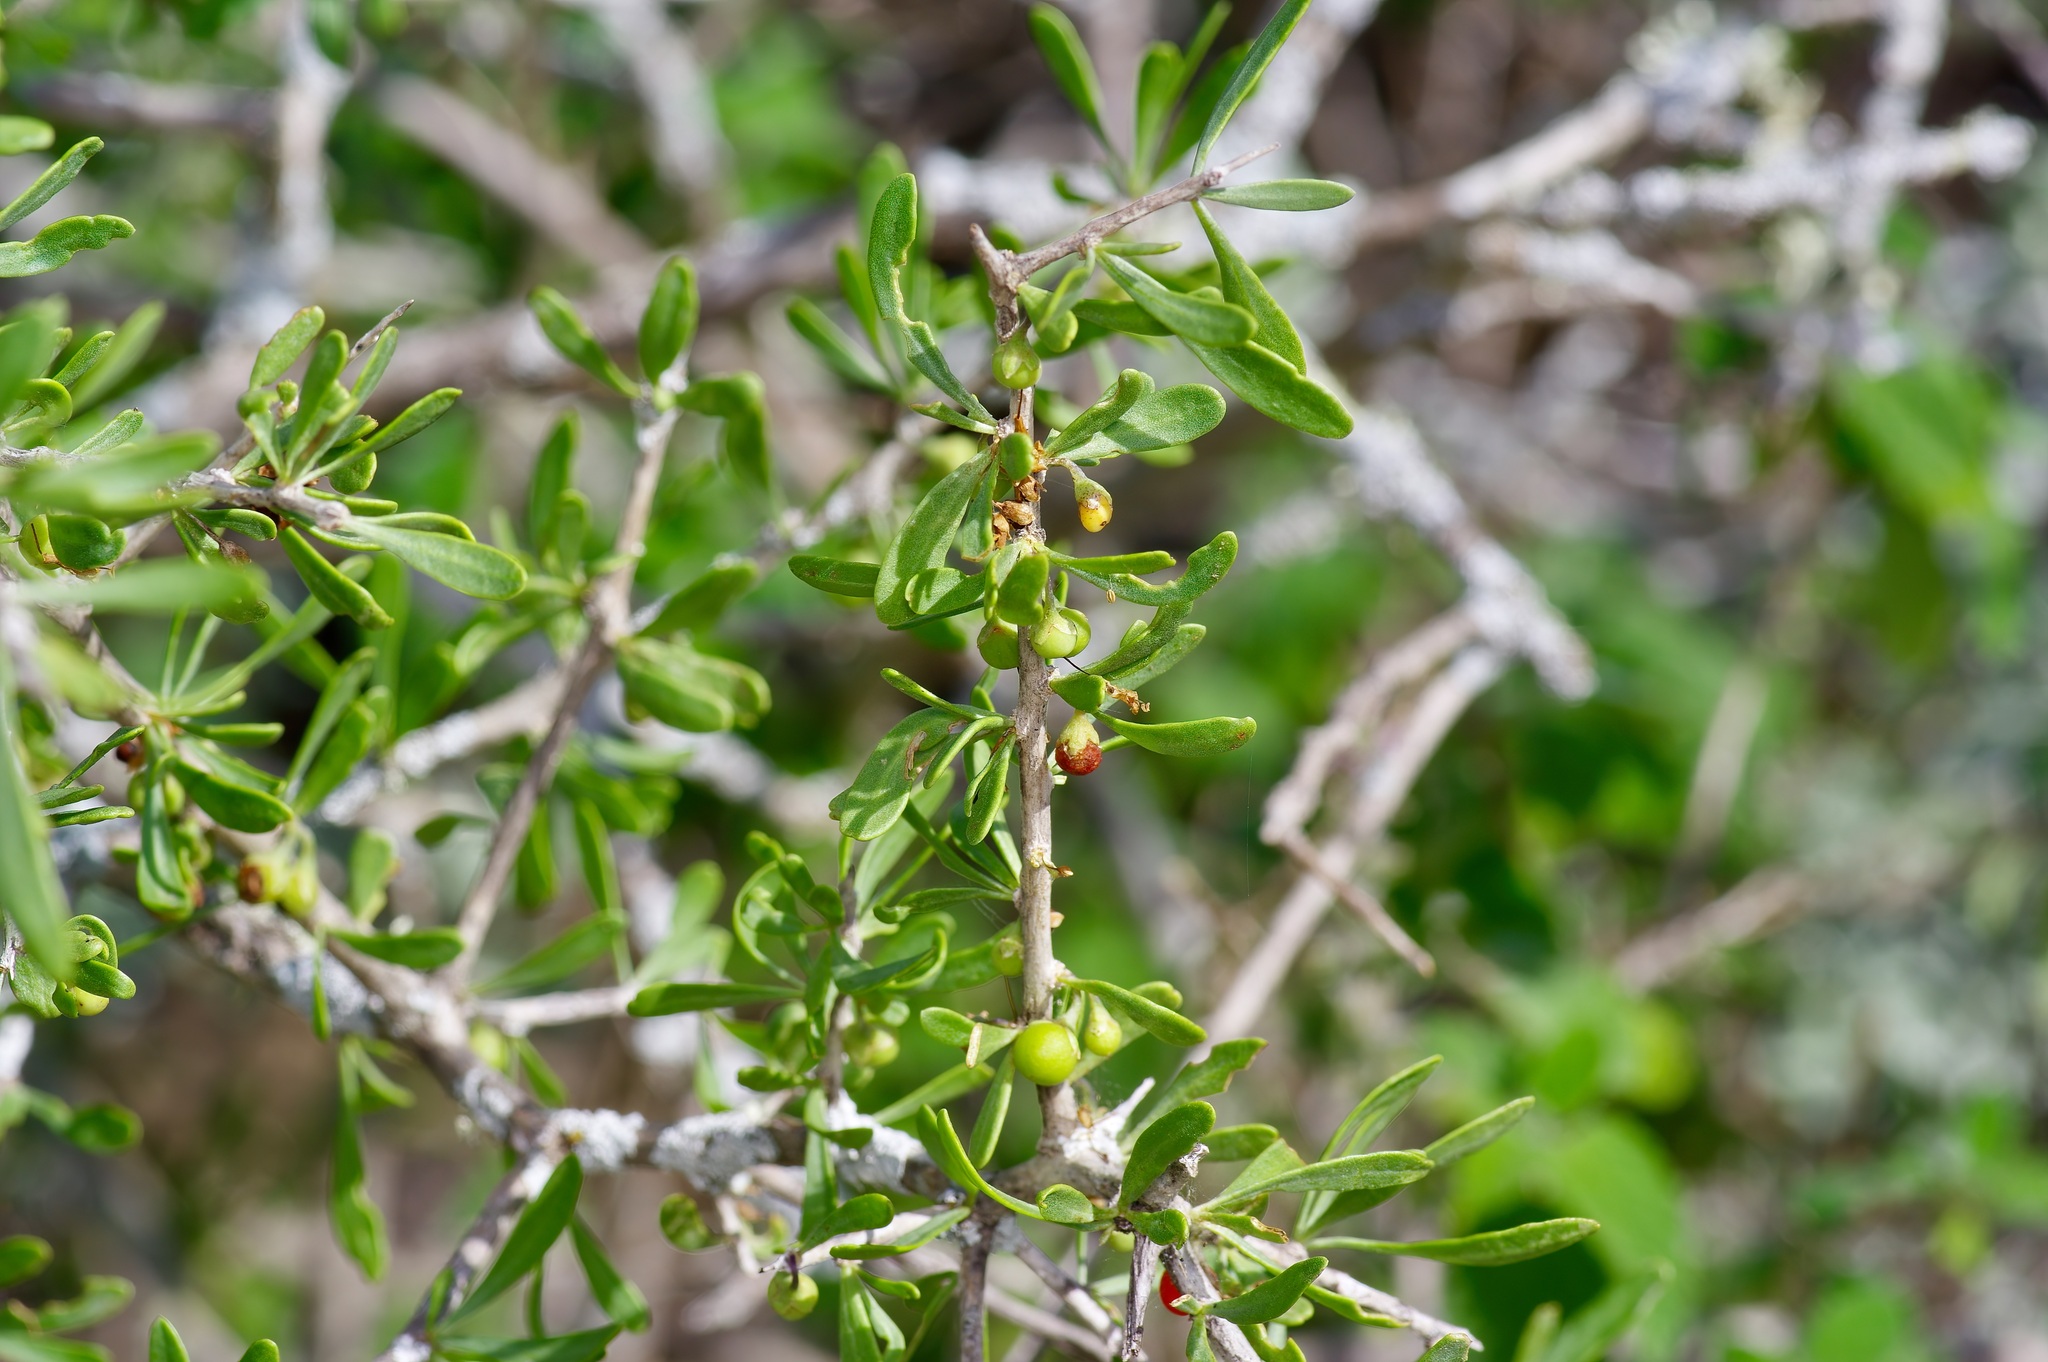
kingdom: Plantae
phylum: Tracheophyta
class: Magnoliopsida
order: Solanales
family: Solanaceae
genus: Lycium
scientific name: Lycium berlandieri
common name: Berlandier wolfberry
